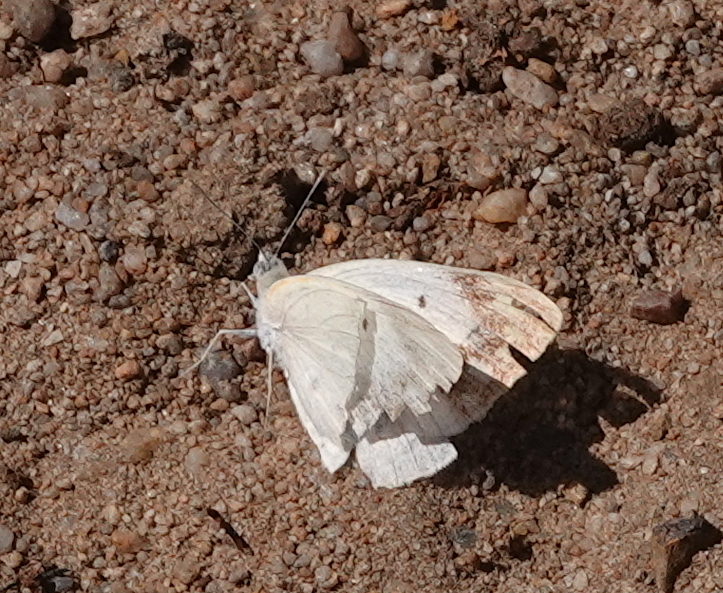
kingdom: Animalia
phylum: Arthropoda
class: Insecta
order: Lepidoptera
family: Pieridae
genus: Colotis
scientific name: Colotis eris
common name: Banded gold tip
